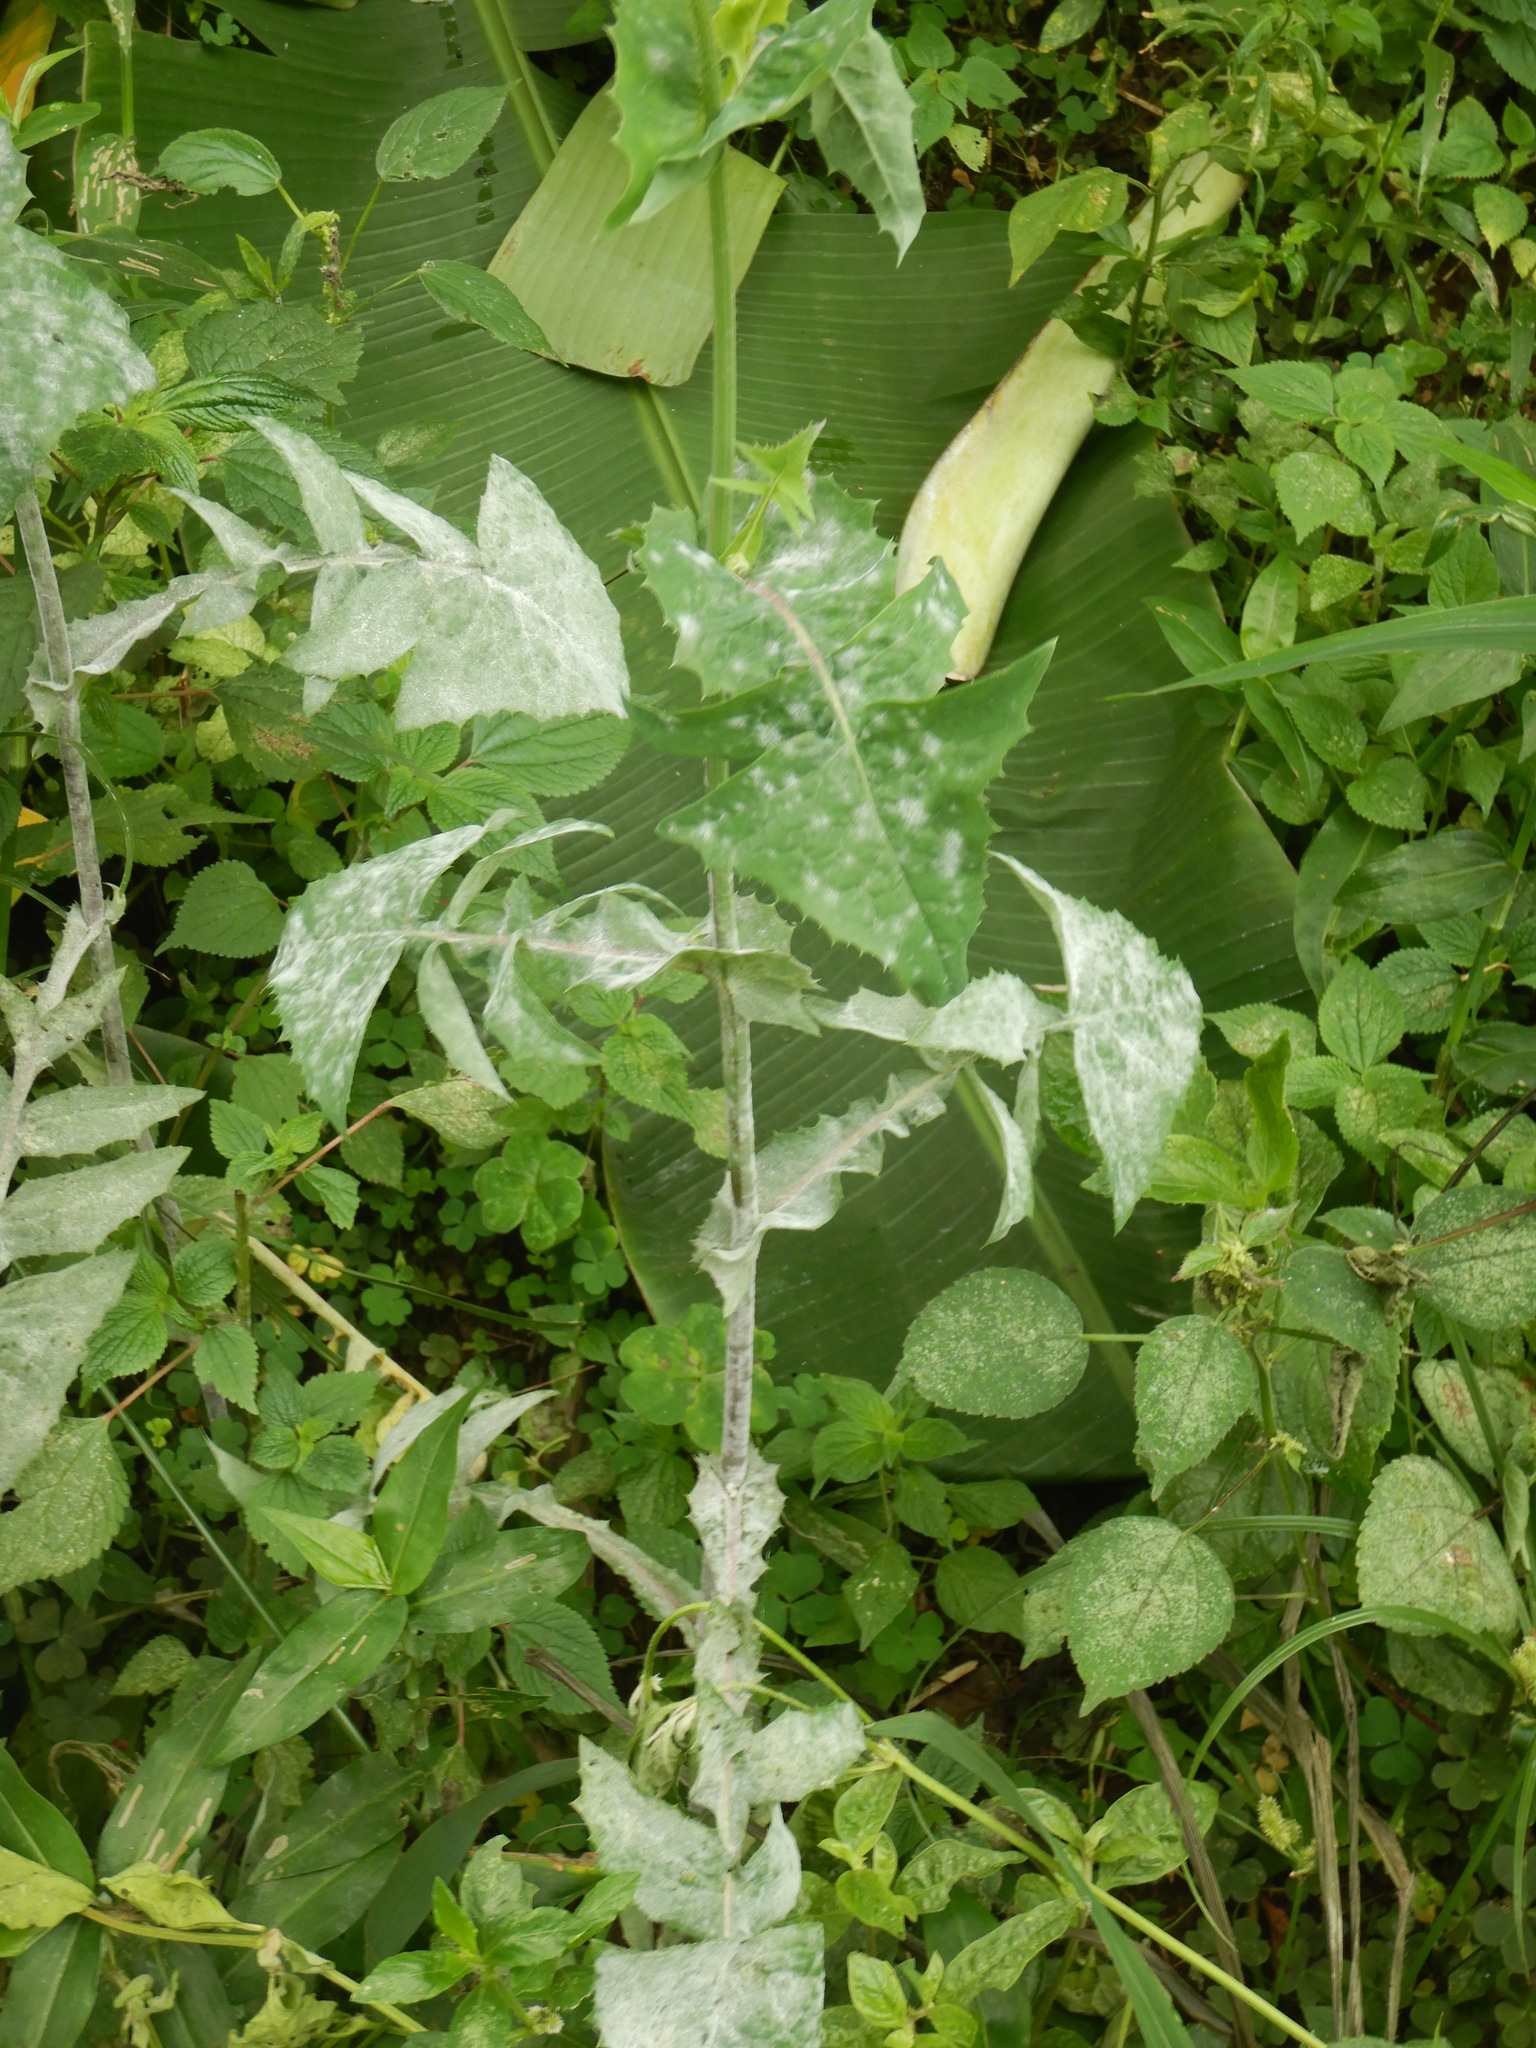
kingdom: Plantae
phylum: Tracheophyta
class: Magnoliopsida
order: Asterales
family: Asteraceae
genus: Sonchus
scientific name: Sonchus oleraceus
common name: Common sowthistle
